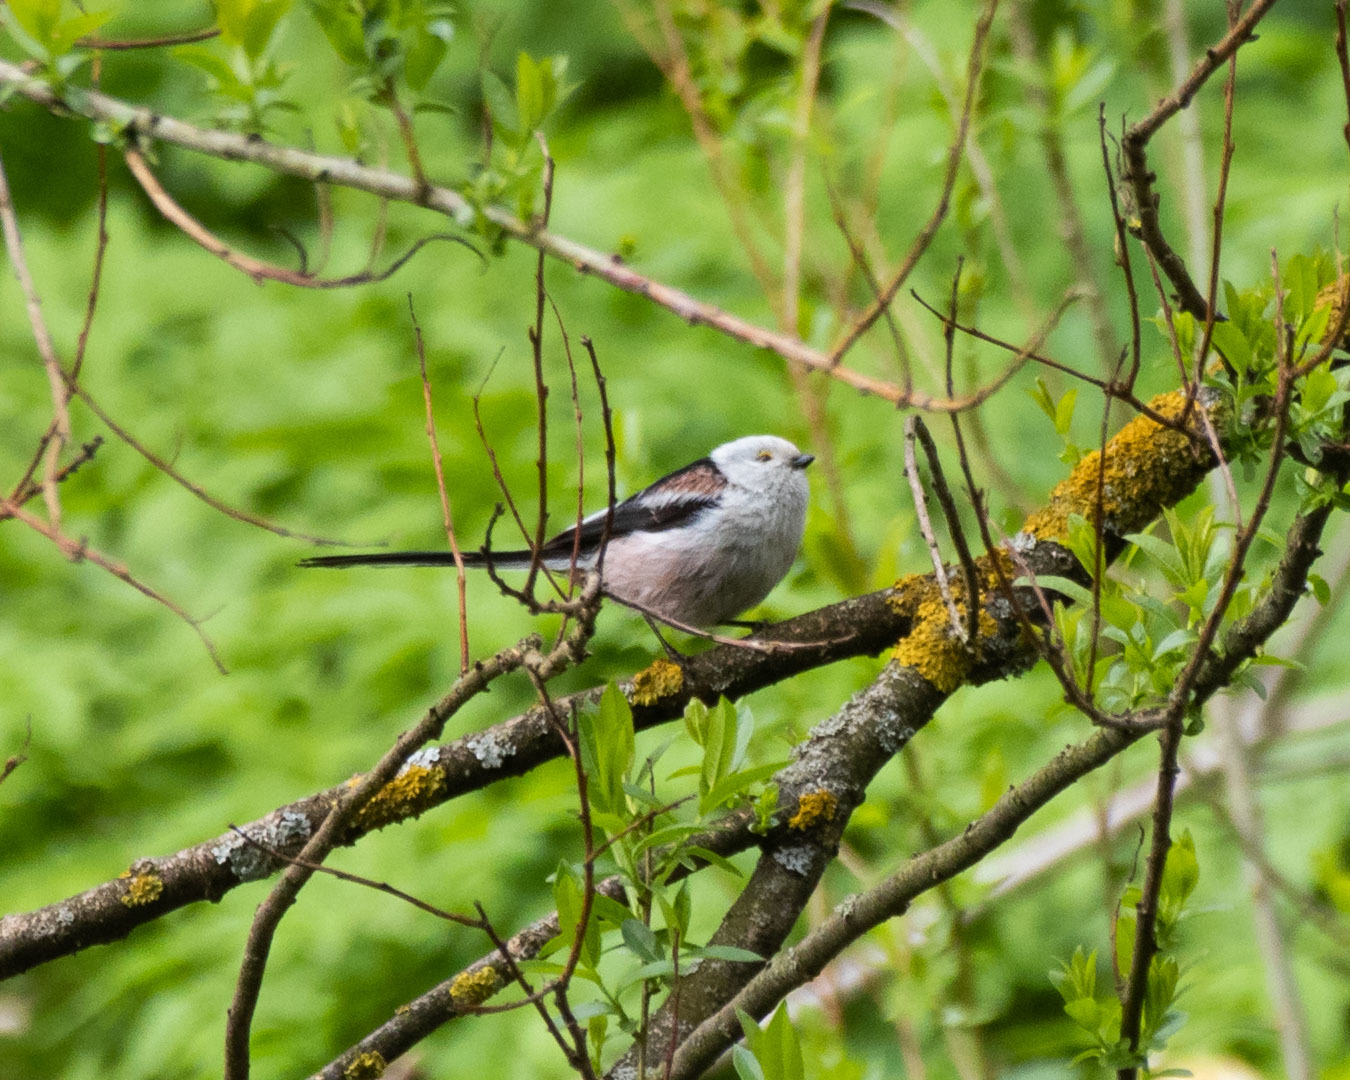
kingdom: Animalia
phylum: Chordata
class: Aves
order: Passeriformes
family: Aegithalidae
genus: Aegithalos
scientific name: Aegithalos caudatus
